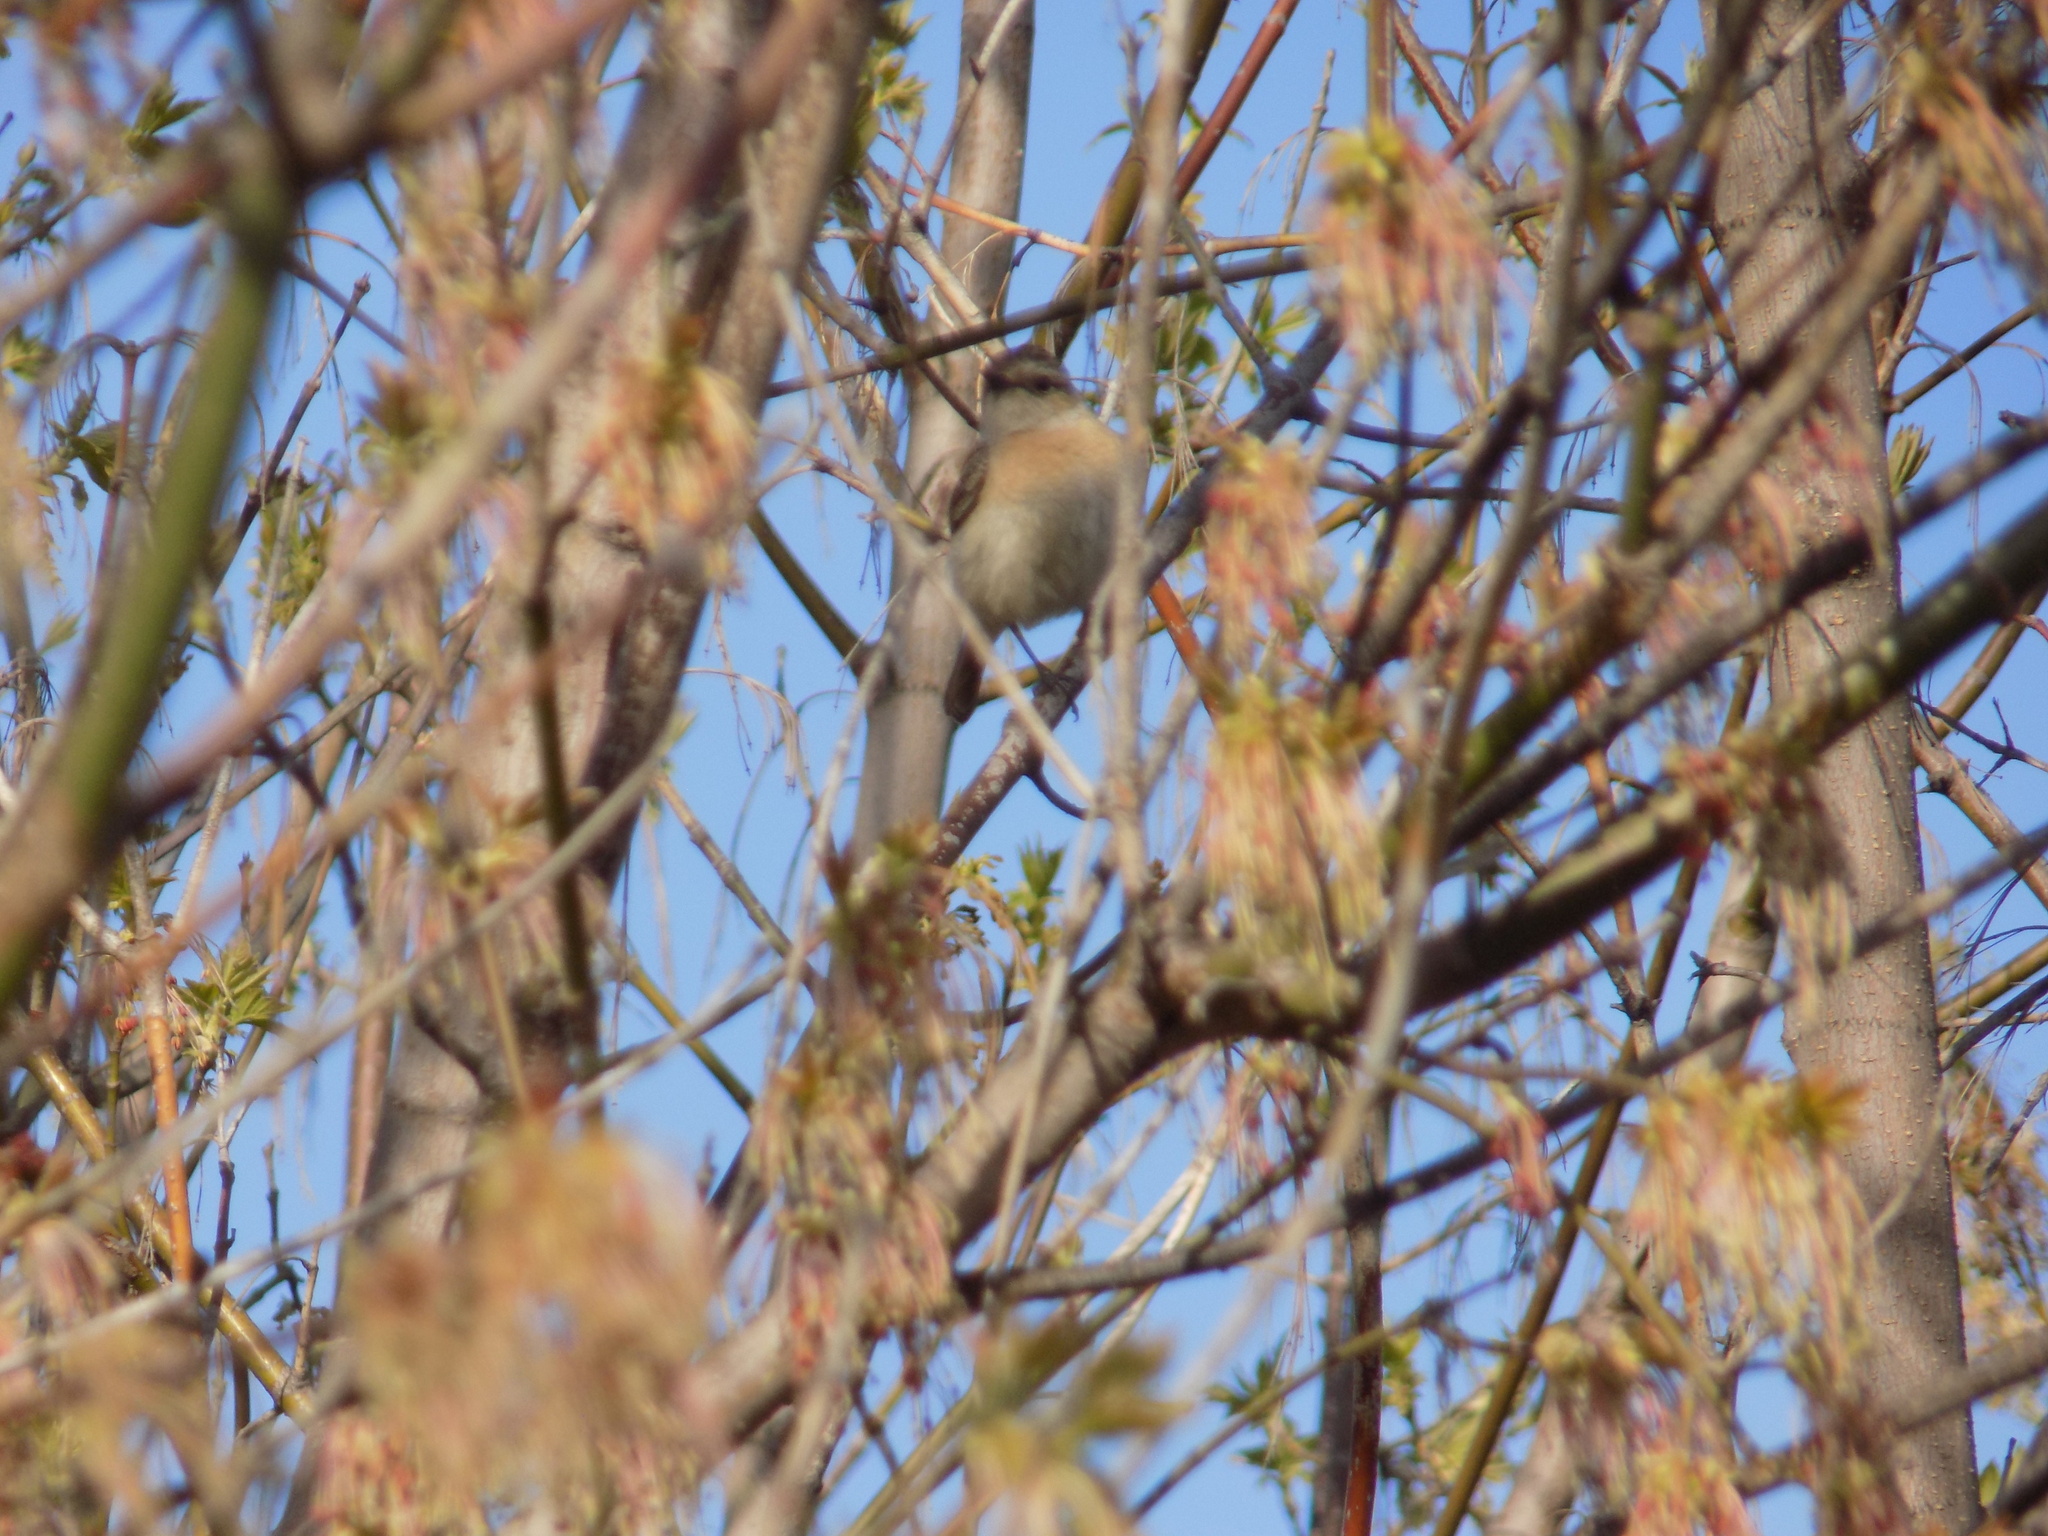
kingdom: Animalia
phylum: Chordata
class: Aves
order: Passeriformes
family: Muscicapidae
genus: Saxicola
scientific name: Saxicola maurus
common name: Siberian stonechat
